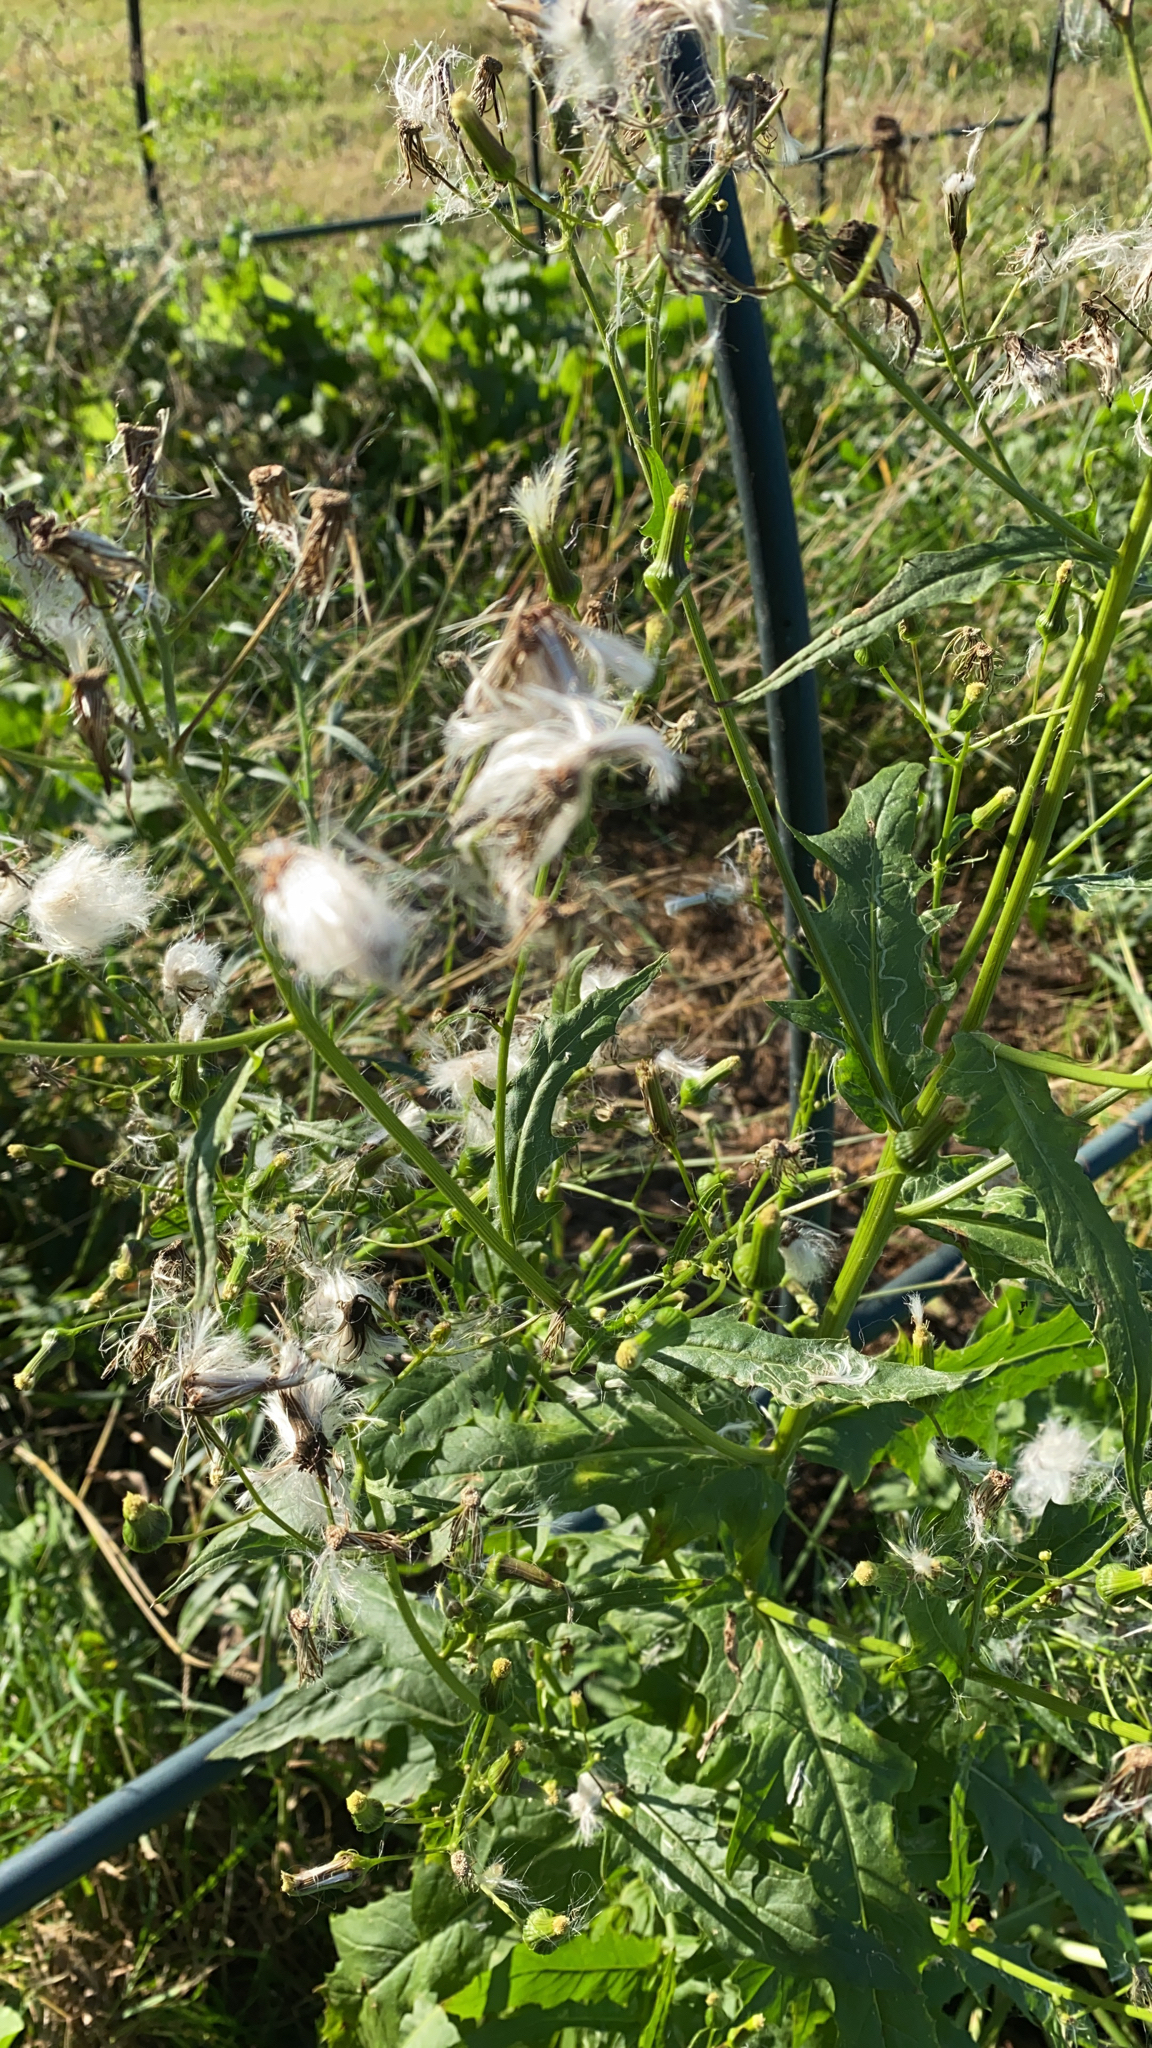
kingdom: Plantae
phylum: Tracheophyta
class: Magnoliopsida
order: Asterales
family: Asteraceae
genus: Erechtites
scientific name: Erechtites hieraciifolius
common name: American burnweed
